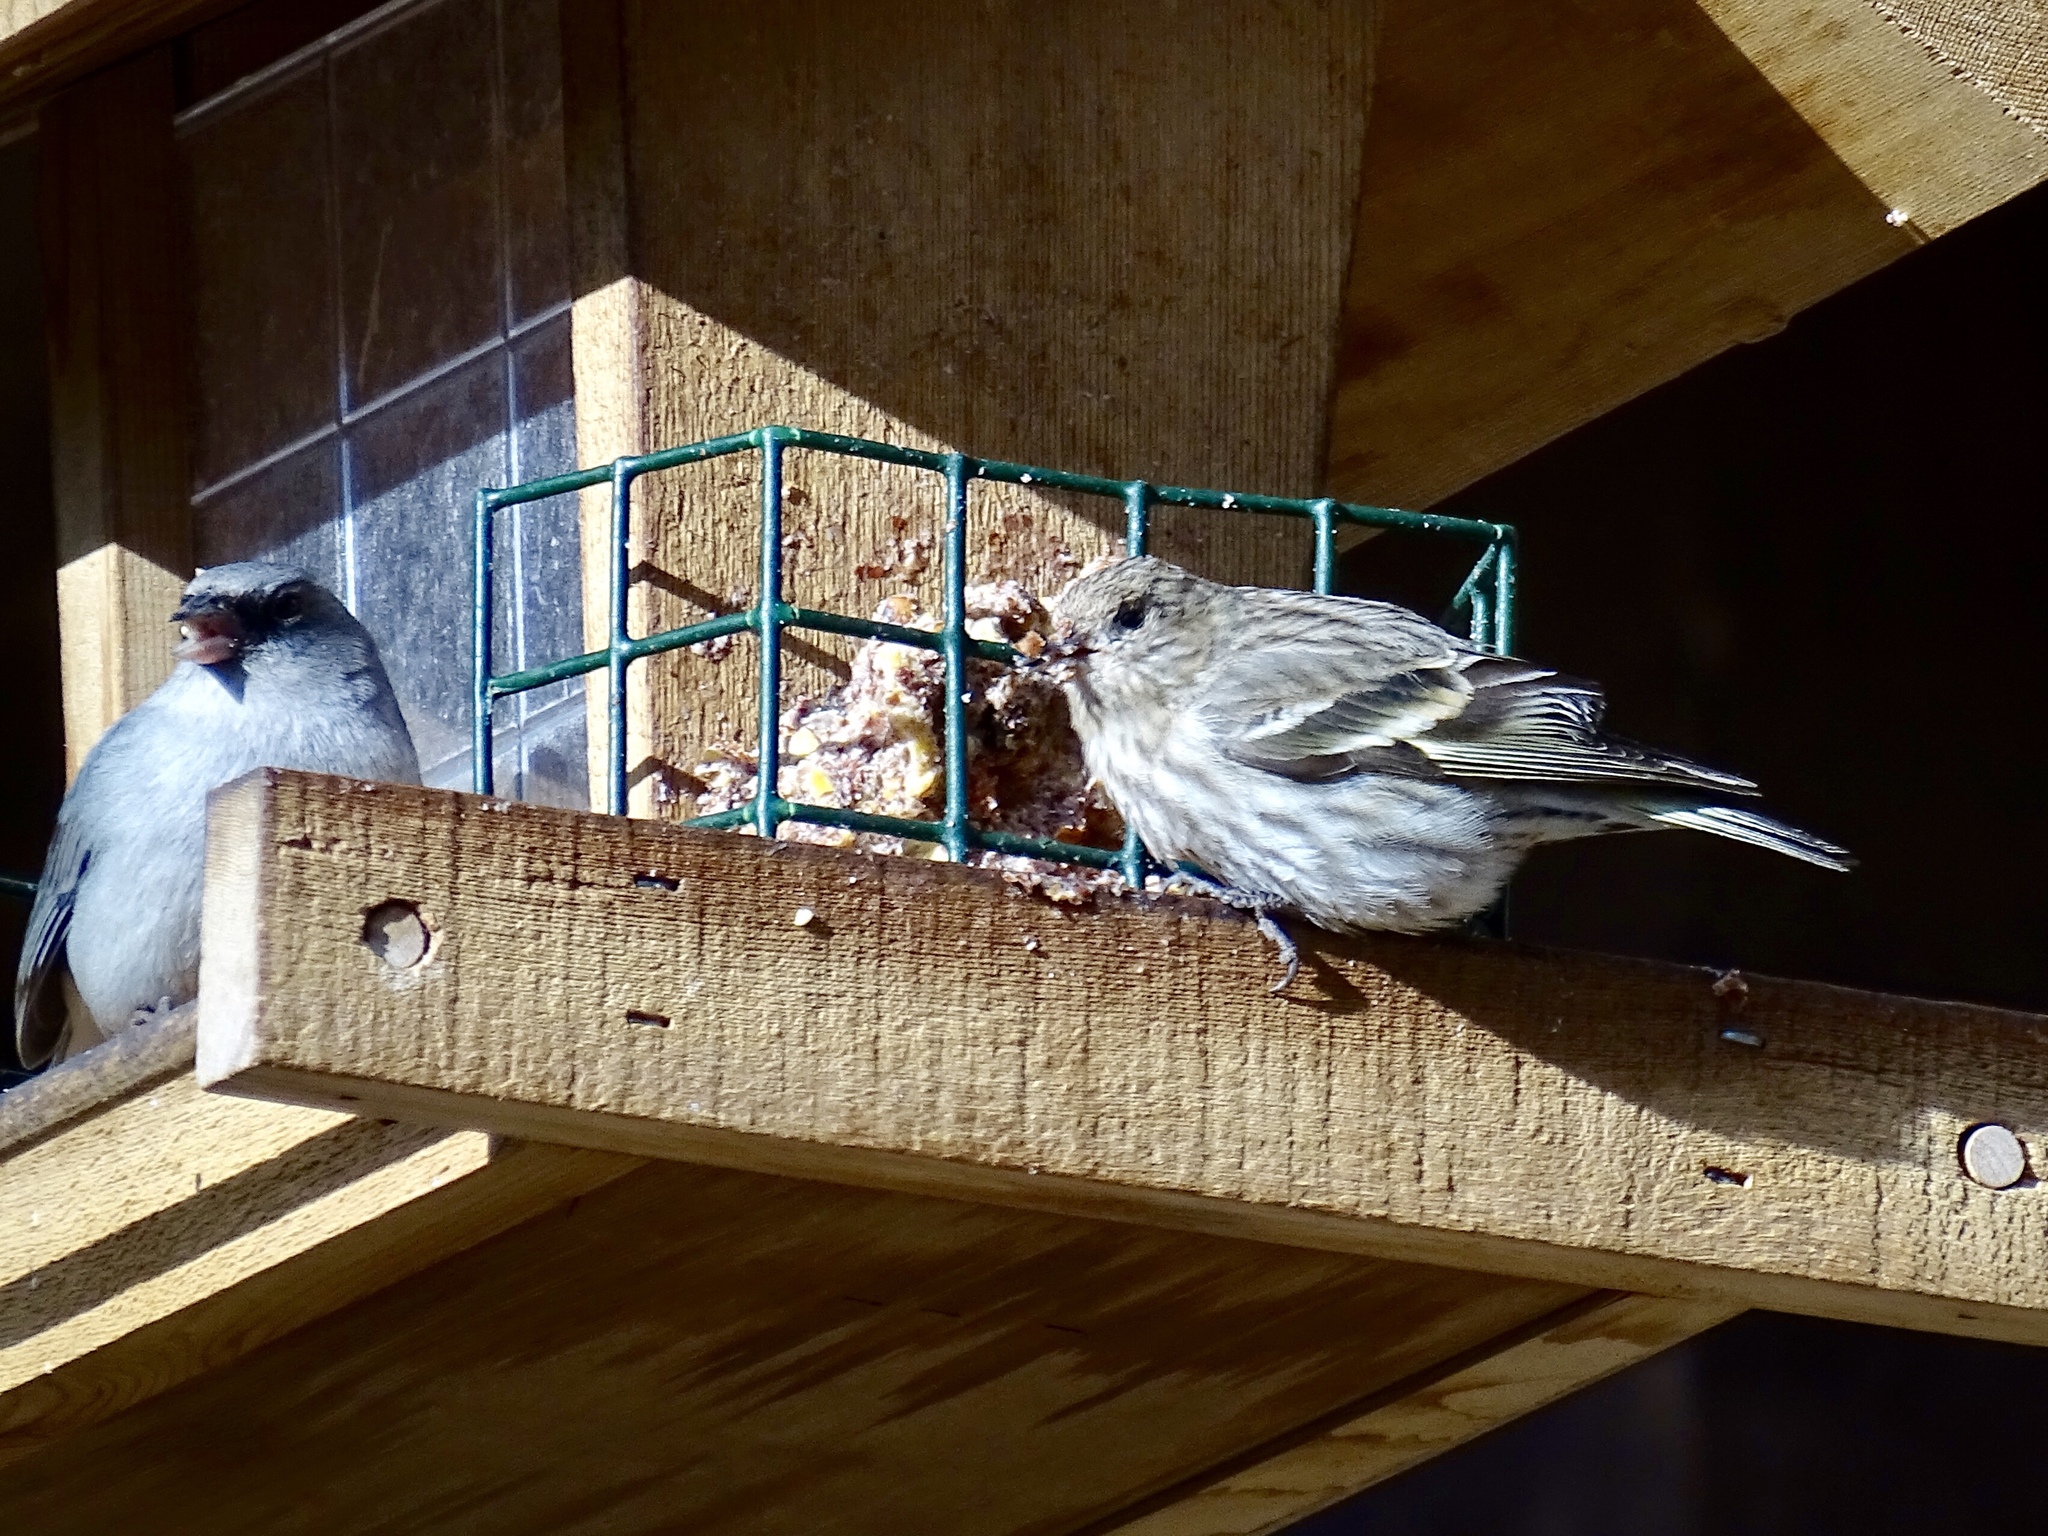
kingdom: Animalia
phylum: Chordata
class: Aves
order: Passeriformes
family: Fringillidae
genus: Spinus
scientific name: Spinus pinus
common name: Pine siskin
